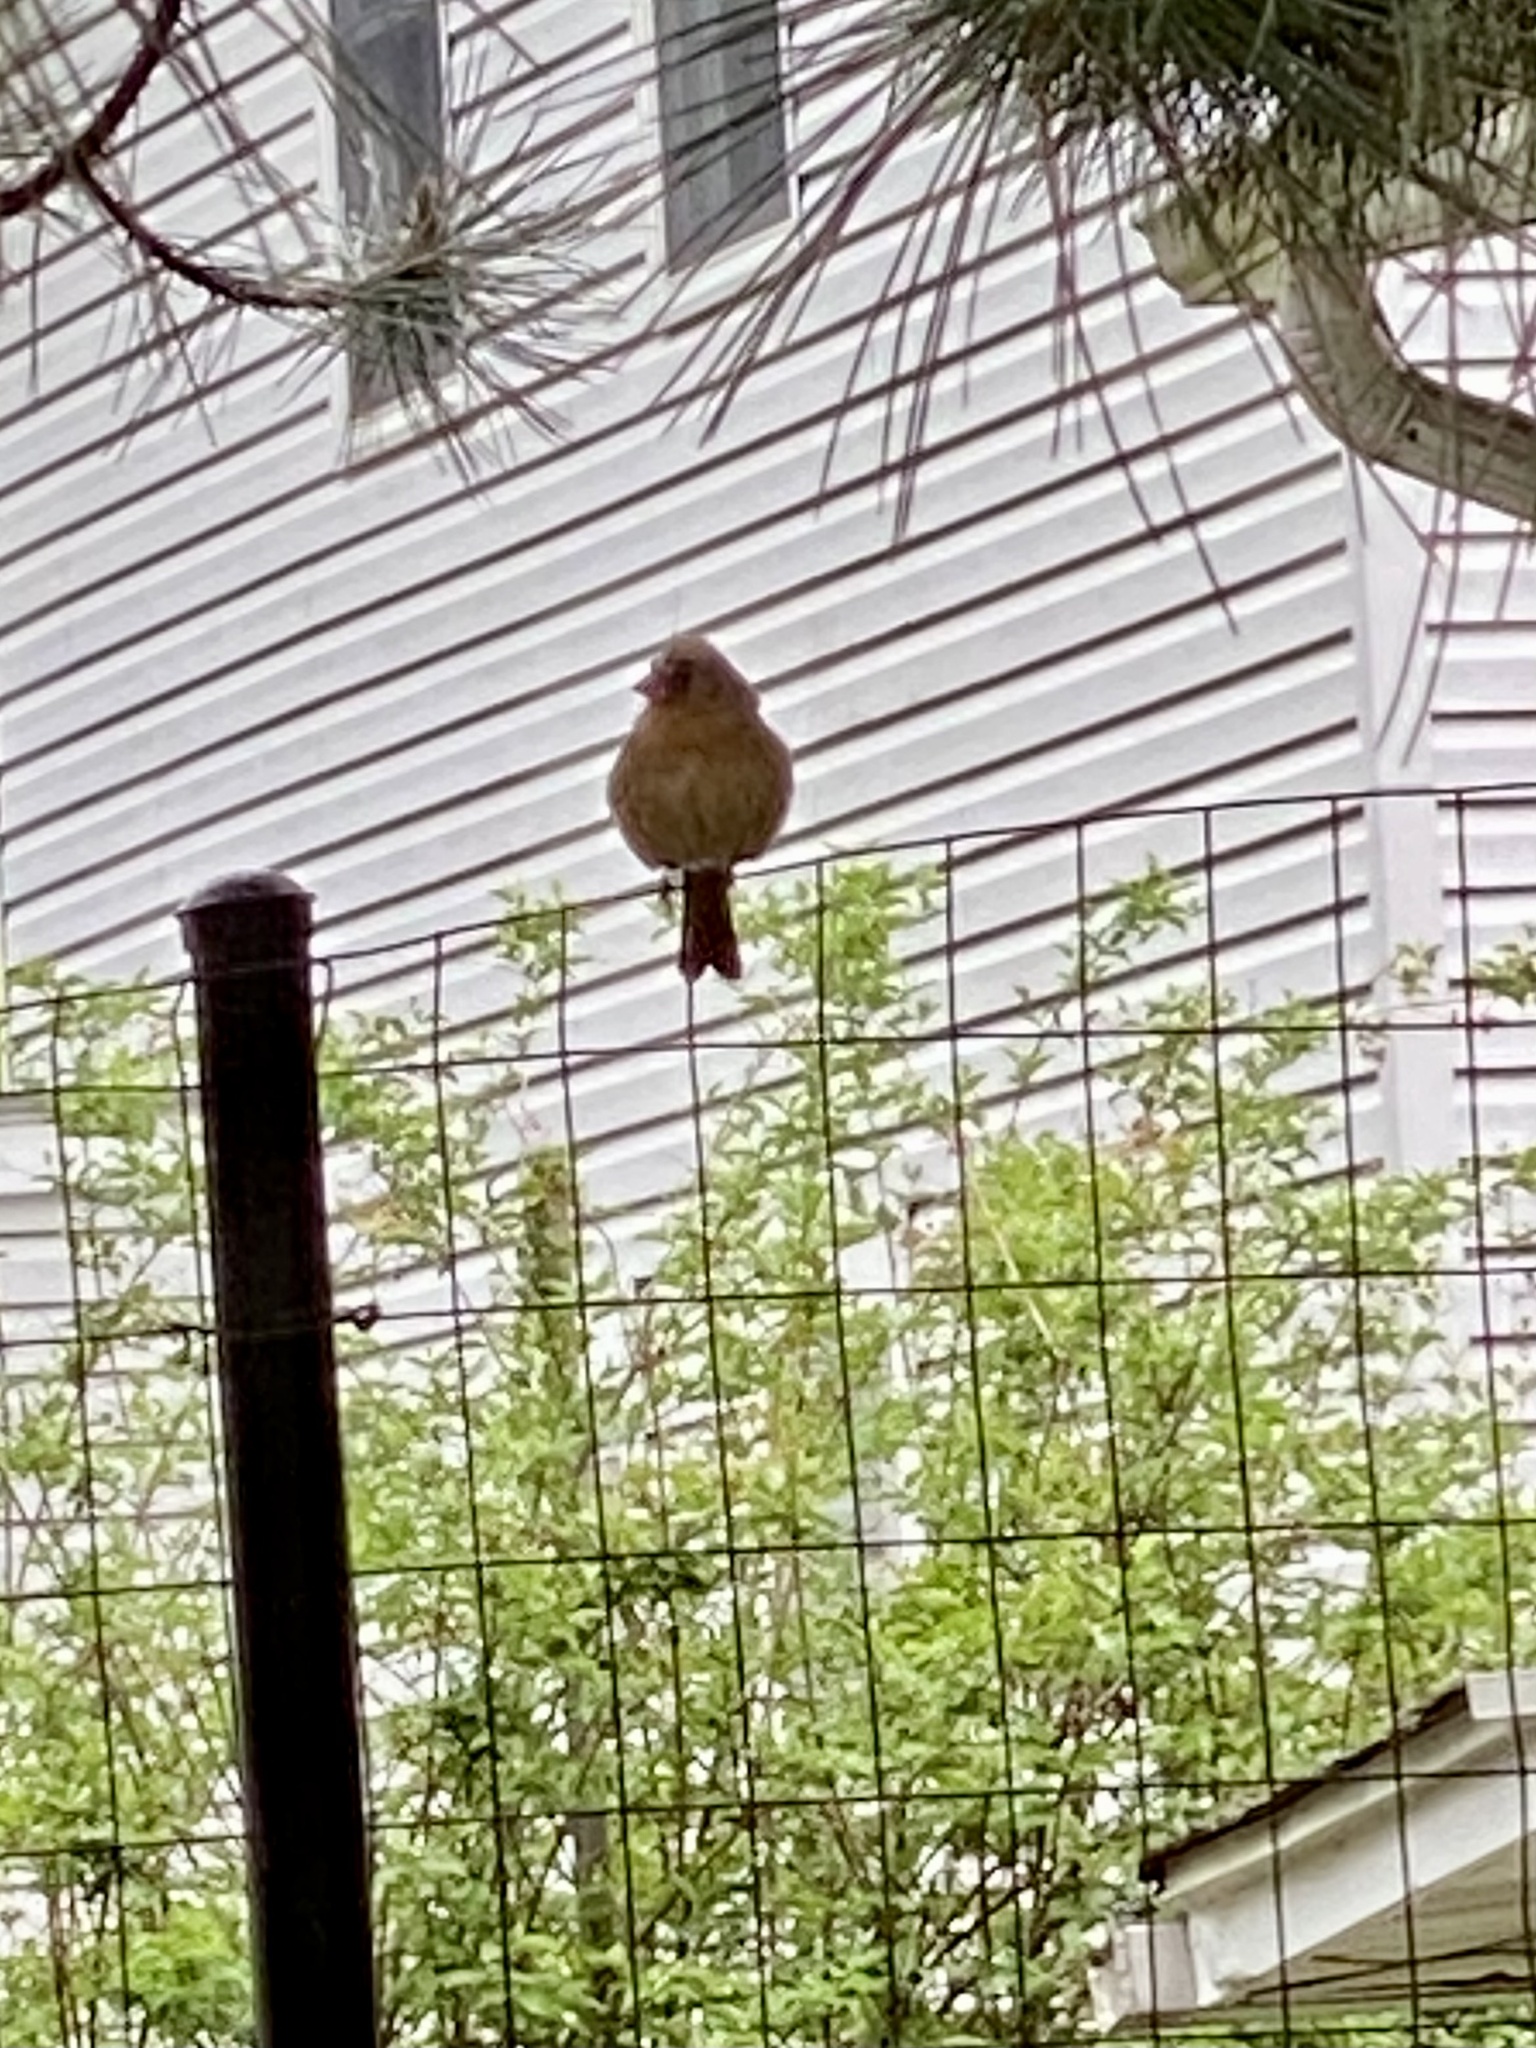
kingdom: Animalia
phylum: Chordata
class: Aves
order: Passeriformes
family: Cardinalidae
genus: Cardinalis
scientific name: Cardinalis cardinalis
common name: Northern cardinal
